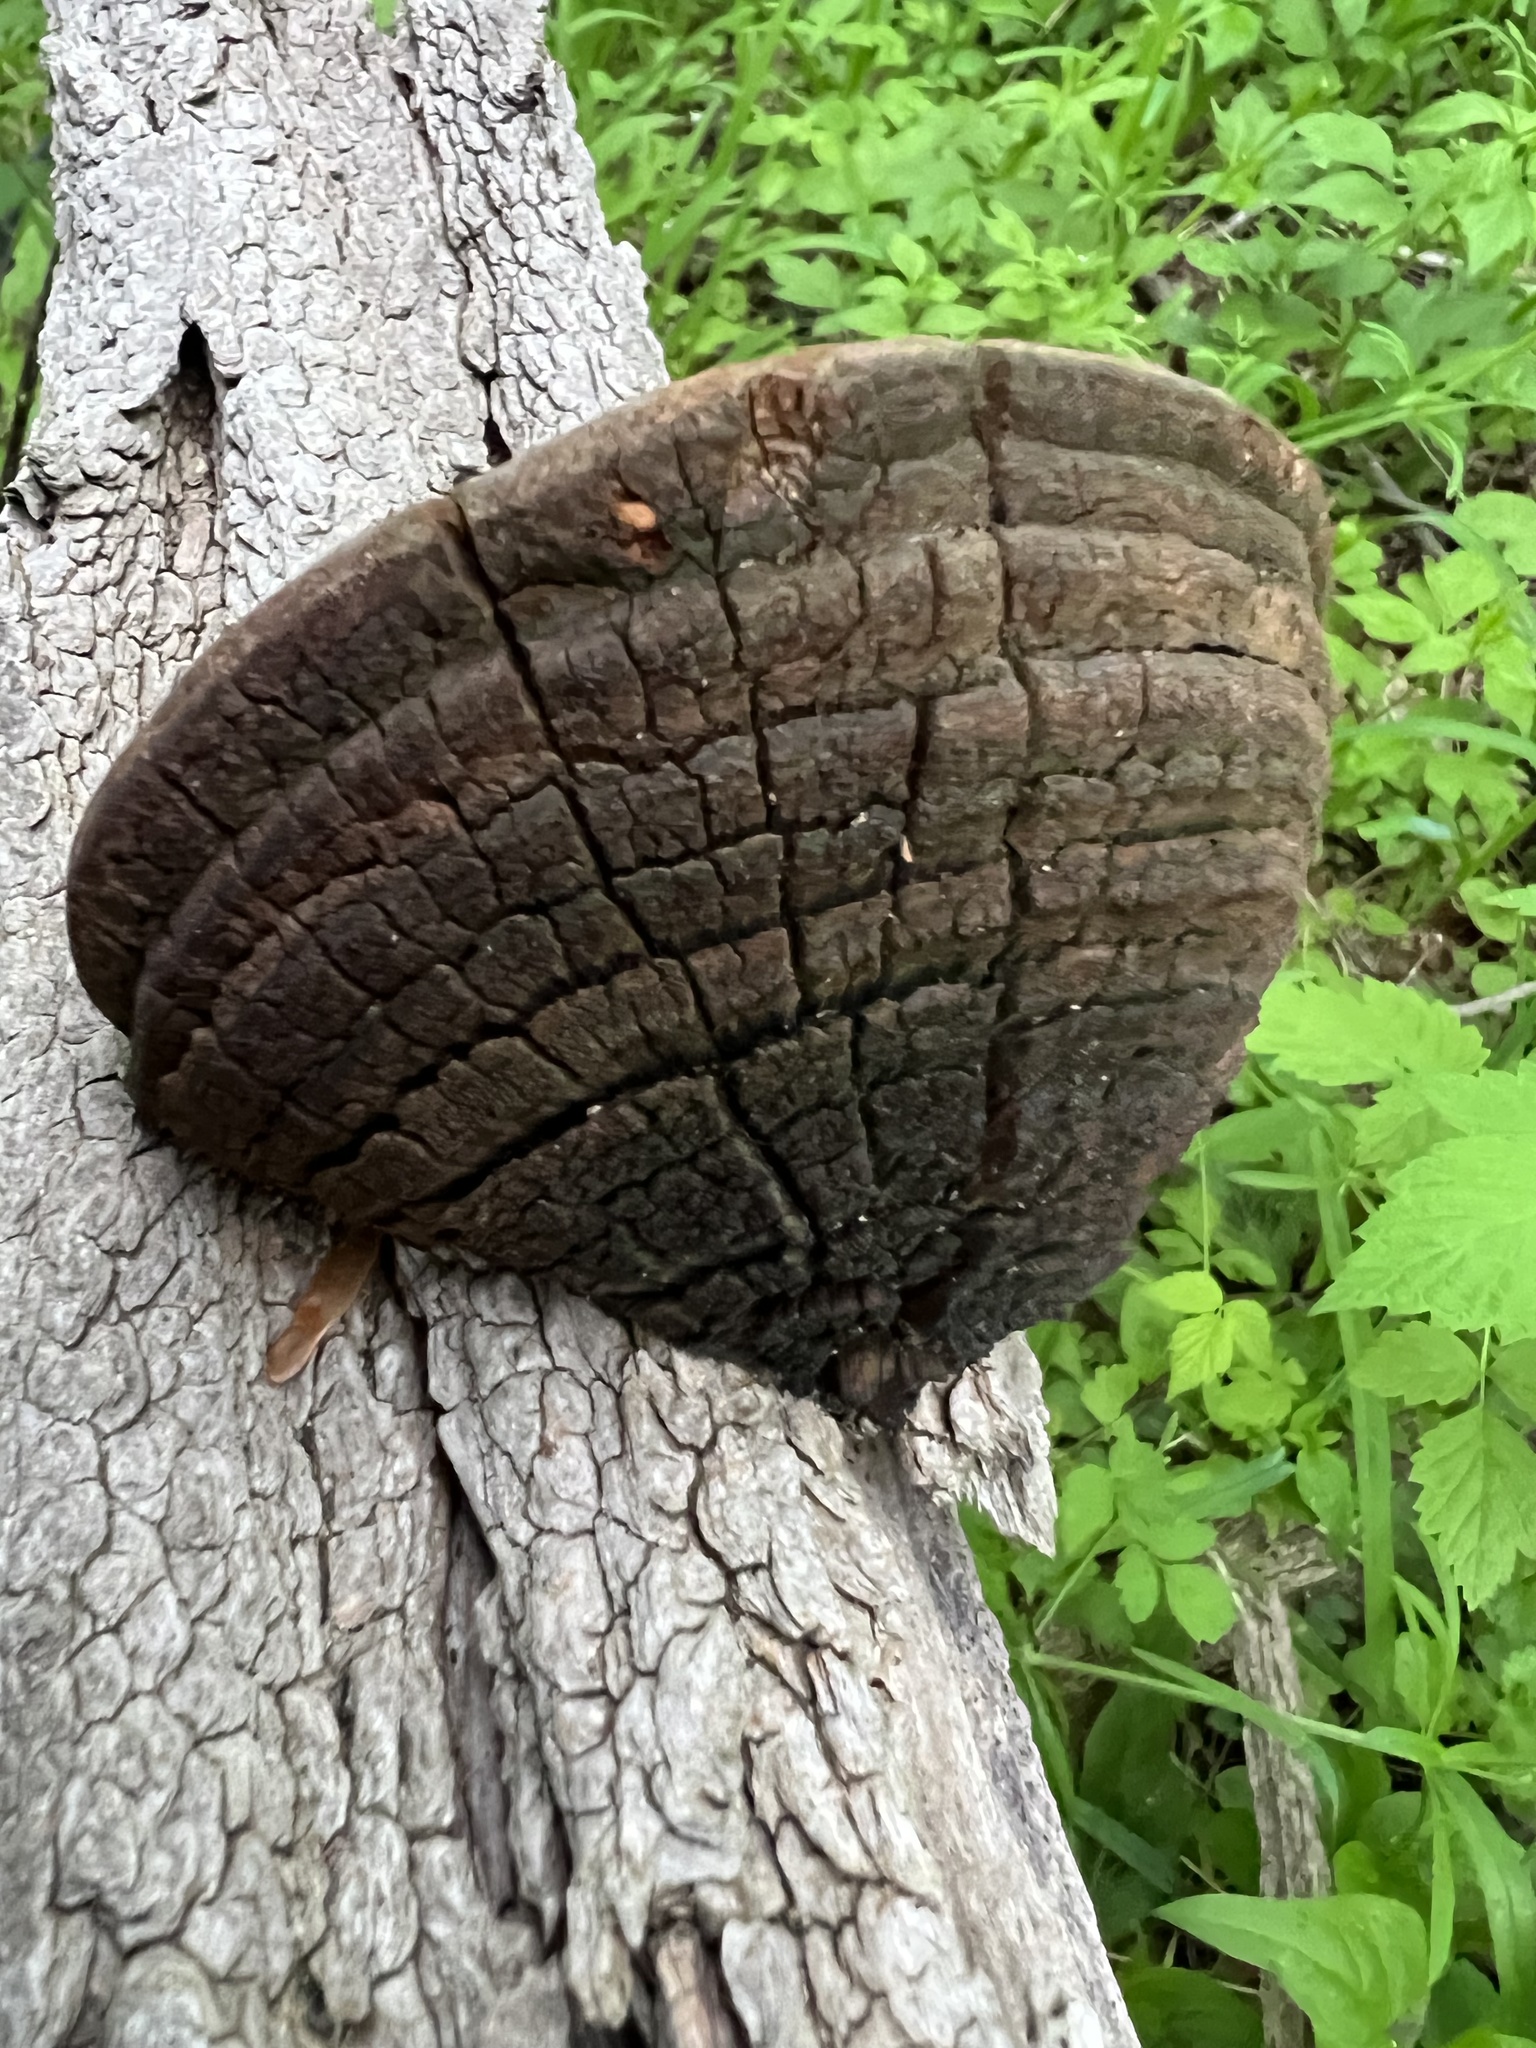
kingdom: Fungi
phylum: Basidiomycota
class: Agaricomycetes
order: Hymenochaetales
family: Hymenochaetaceae
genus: Phellinus
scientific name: Phellinus robiniae
